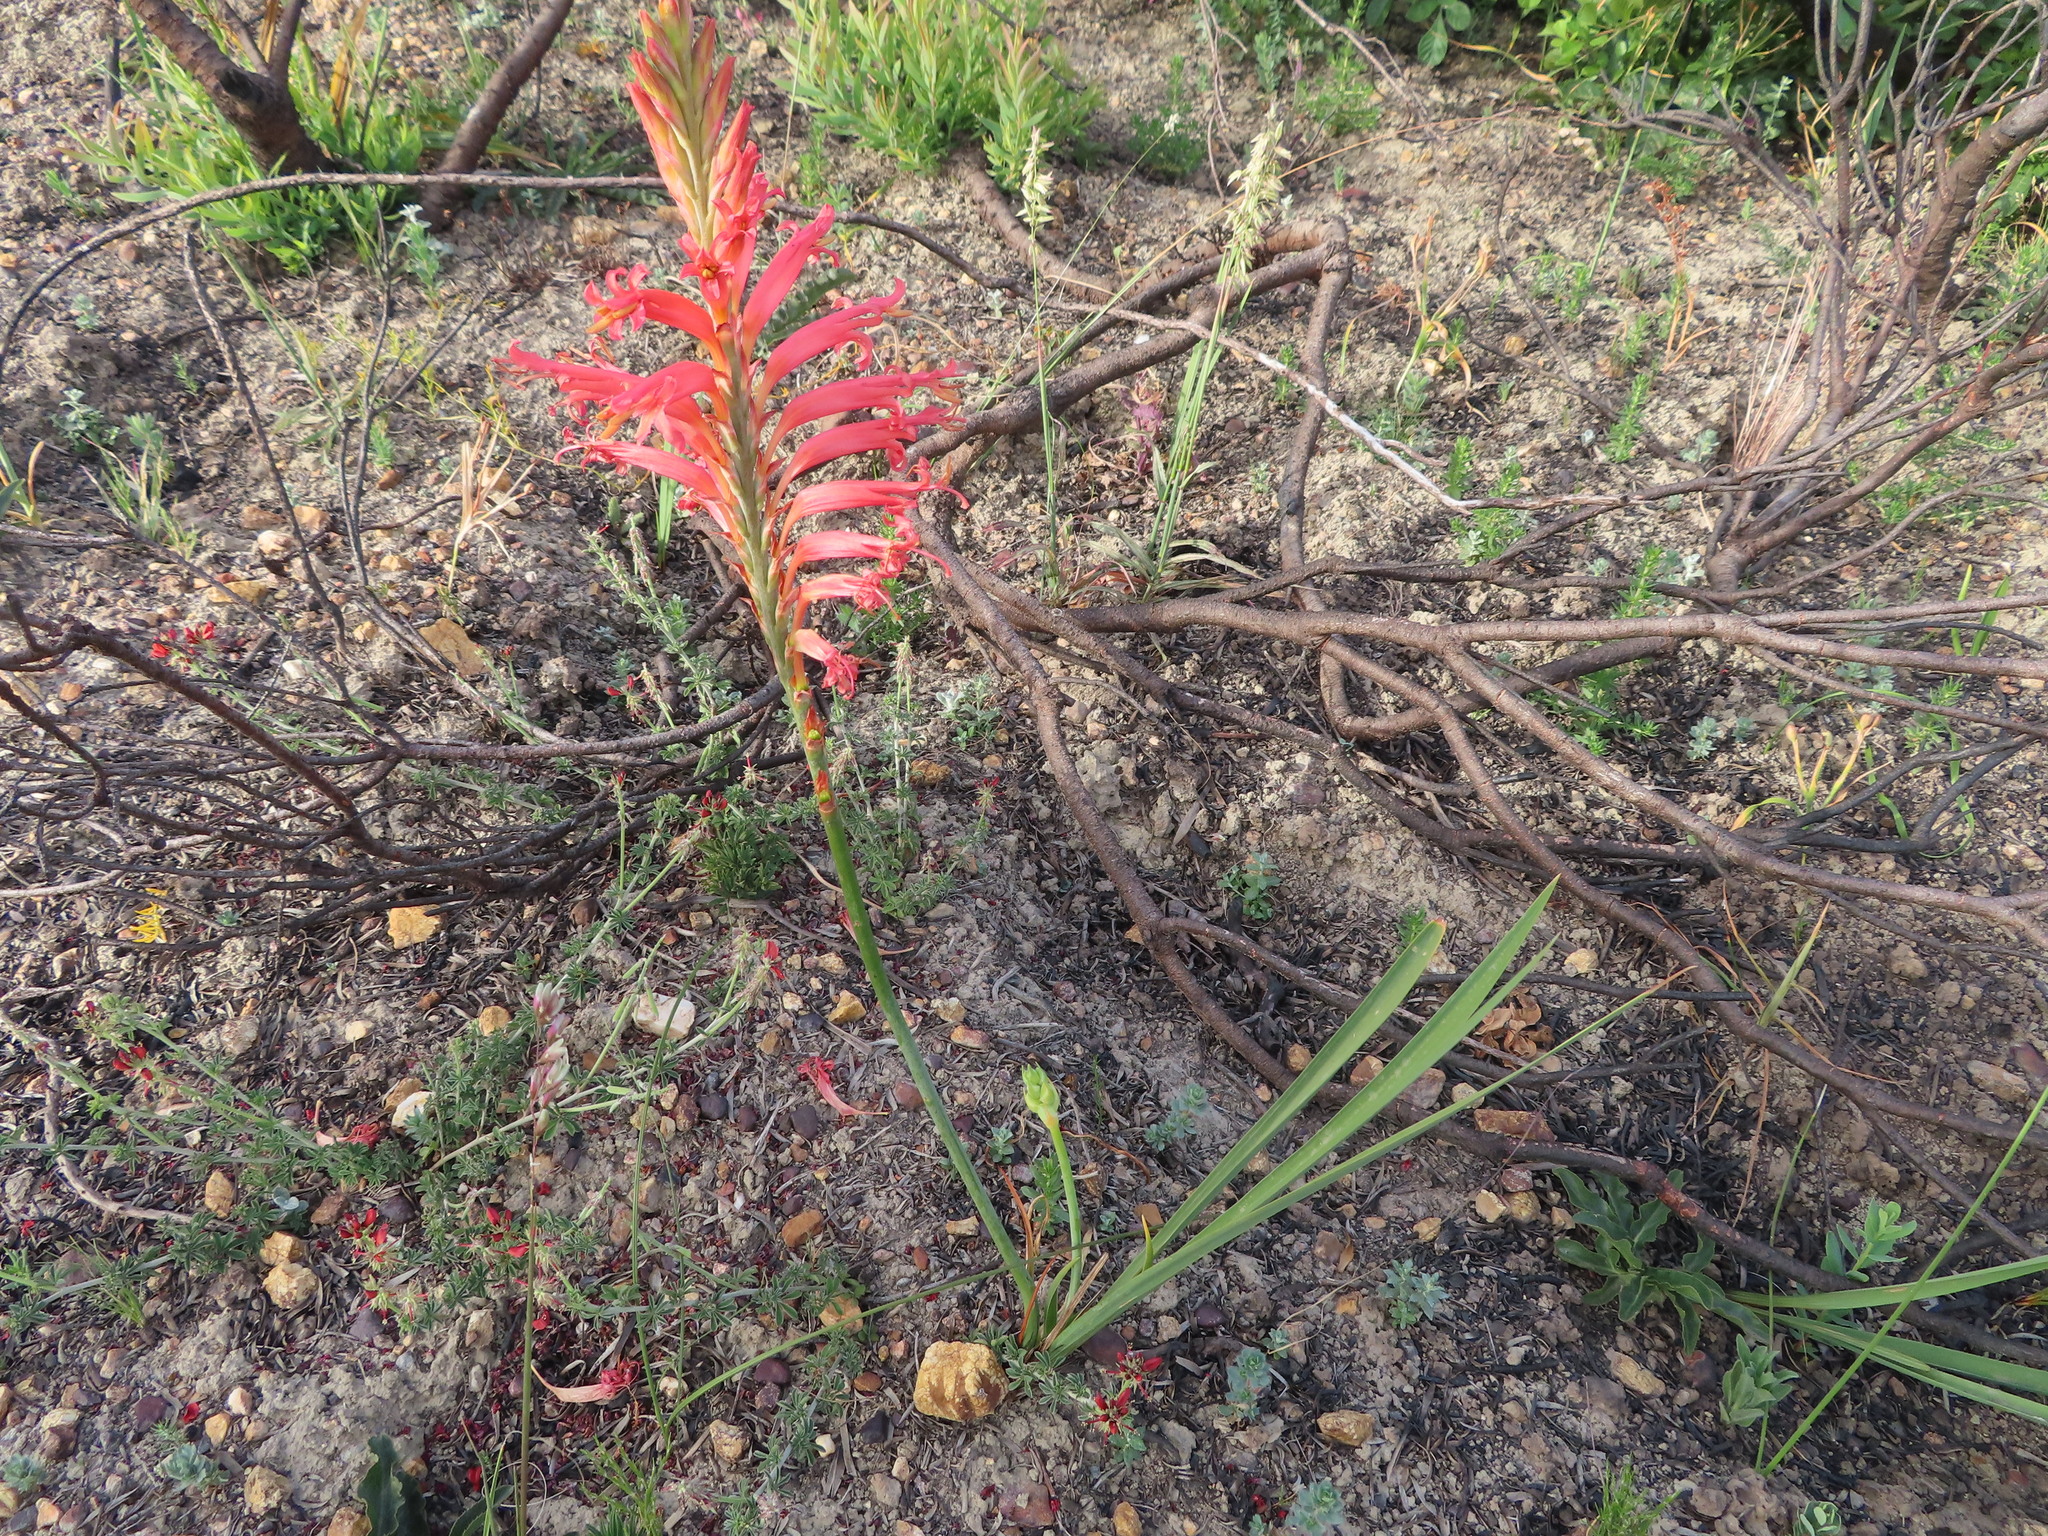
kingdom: Plantae
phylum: Tracheophyta
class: Liliopsida
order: Asparagales
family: Iridaceae
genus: Tritoniopsis
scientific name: Tritoniopsis antholyza
